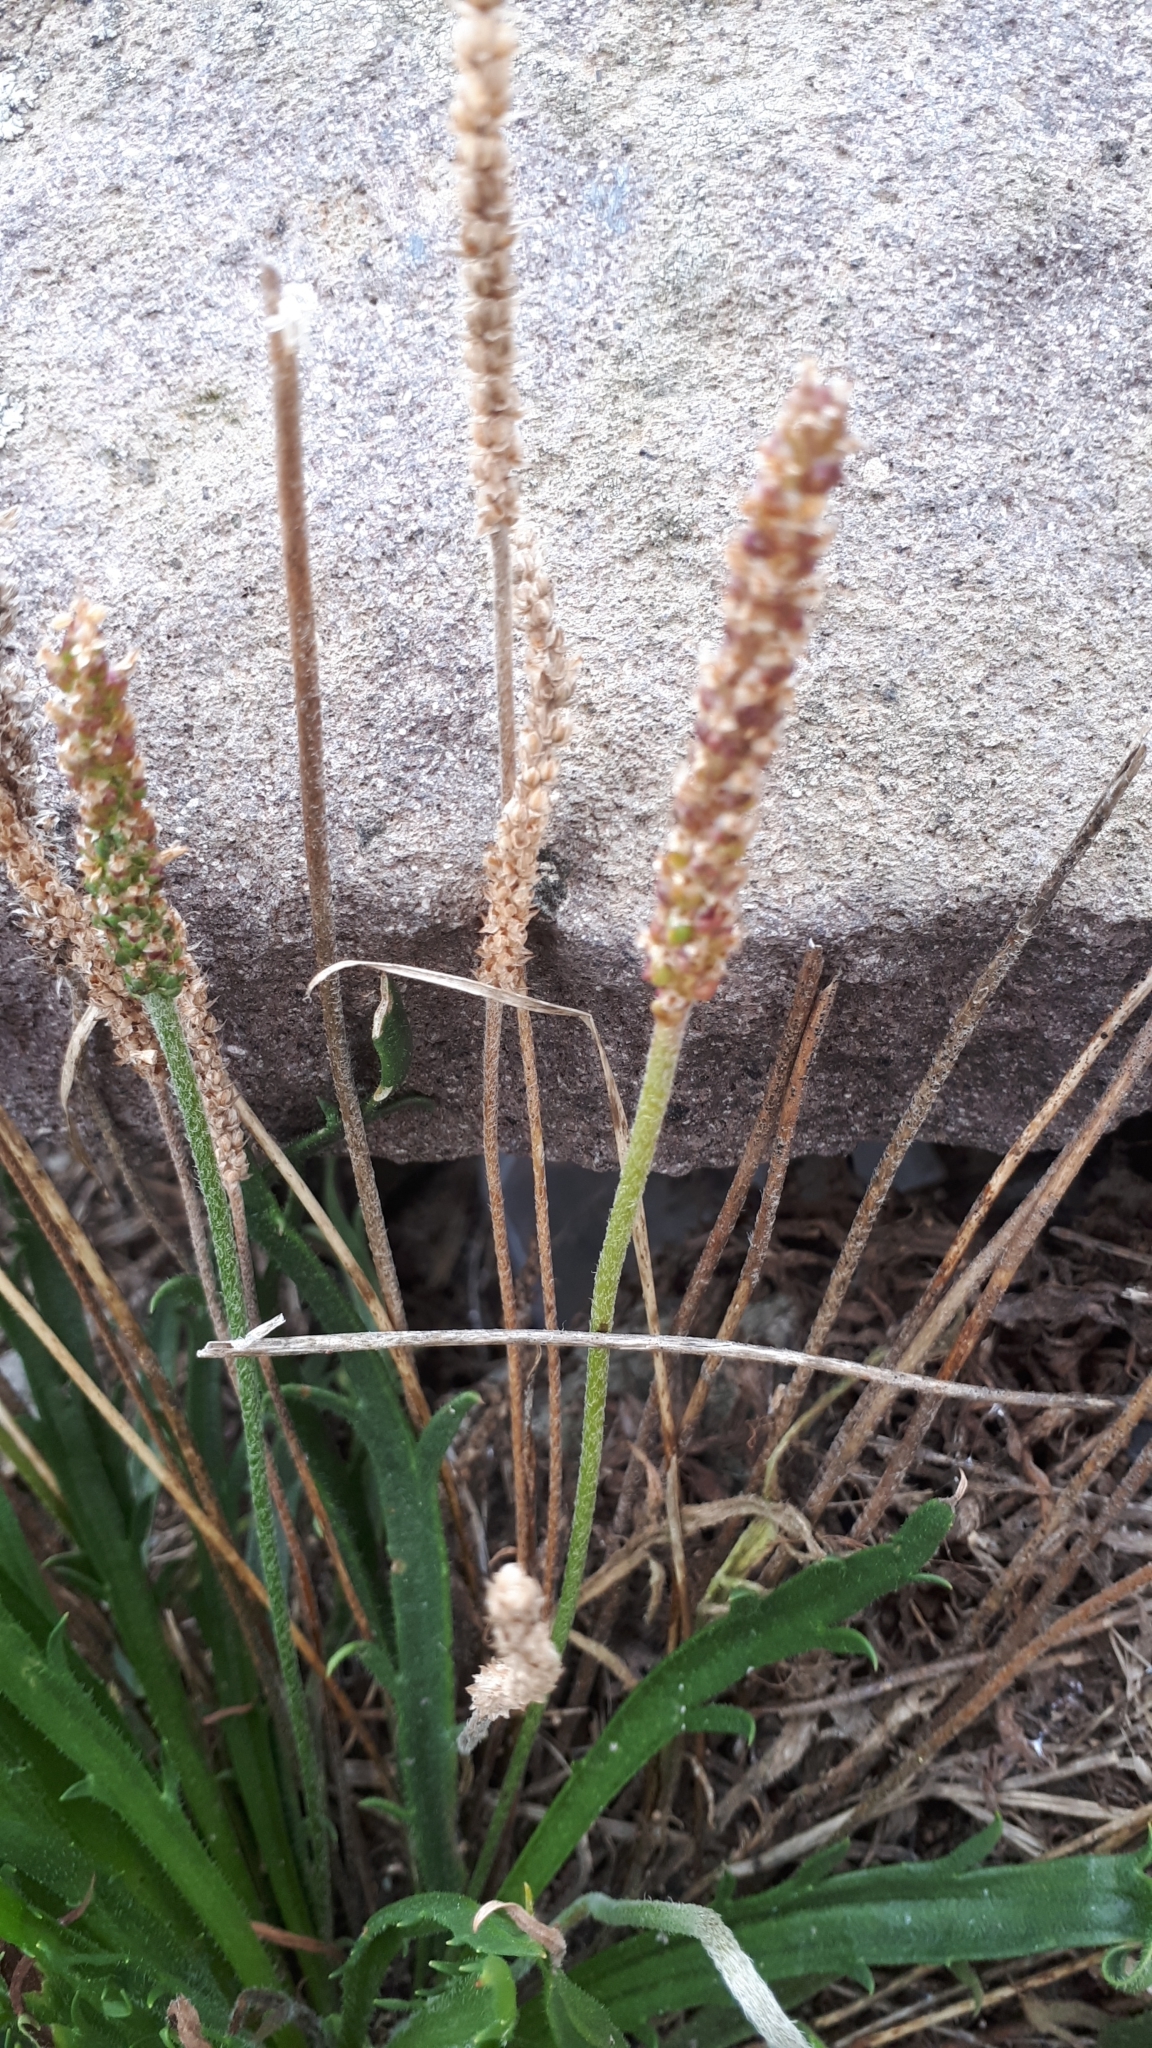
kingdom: Plantae
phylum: Tracheophyta
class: Magnoliopsida
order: Lamiales
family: Plantaginaceae
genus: Plantago
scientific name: Plantago coronopus
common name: Buck's-horn plantain
